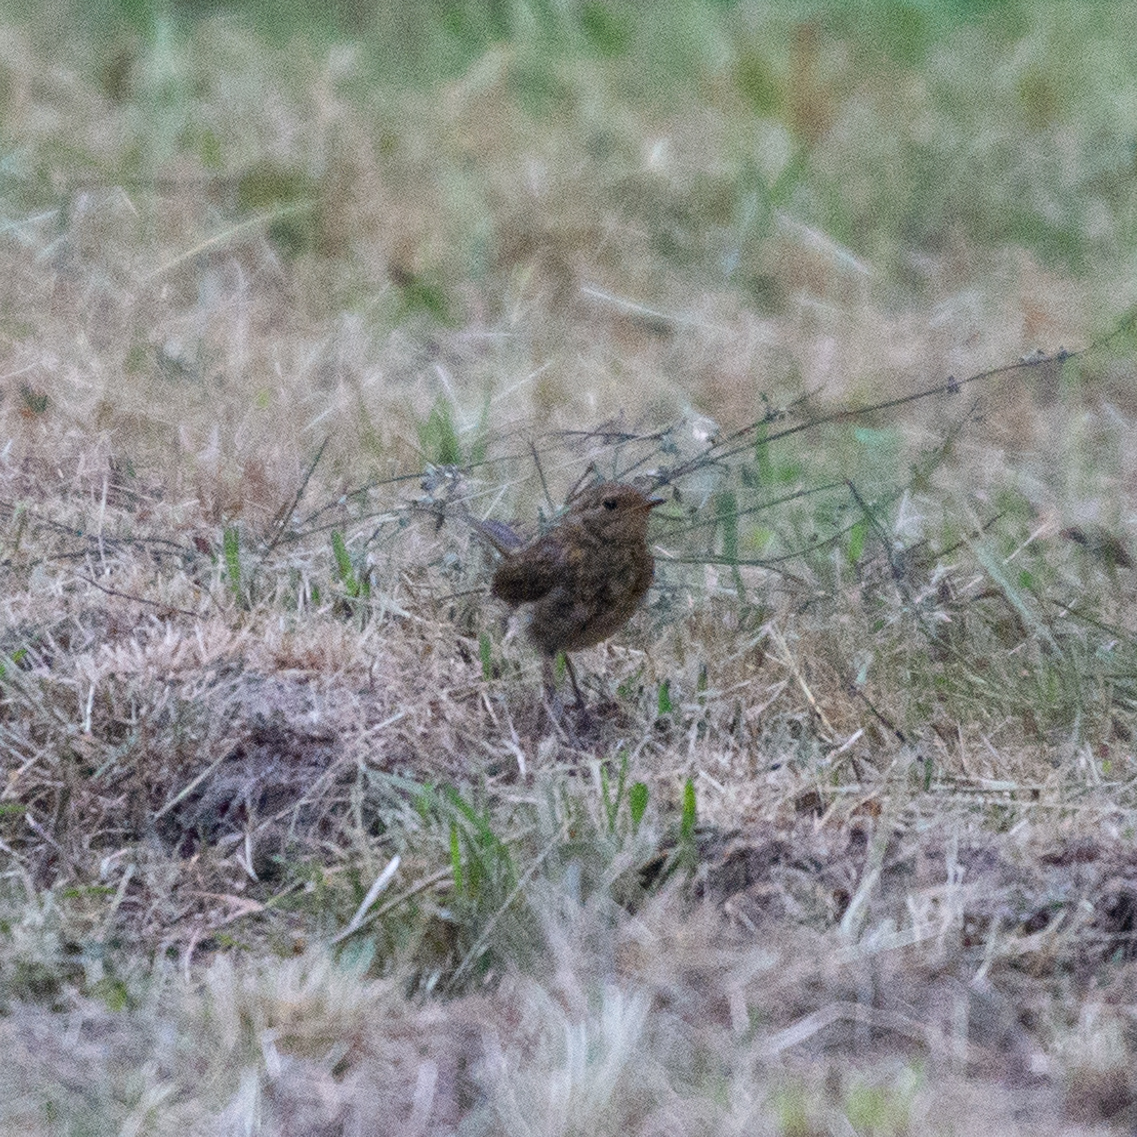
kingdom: Animalia
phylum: Chordata
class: Aves
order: Passeriformes
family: Muscicapidae
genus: Erithacus
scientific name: Erithacus rubecula
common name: European robin
